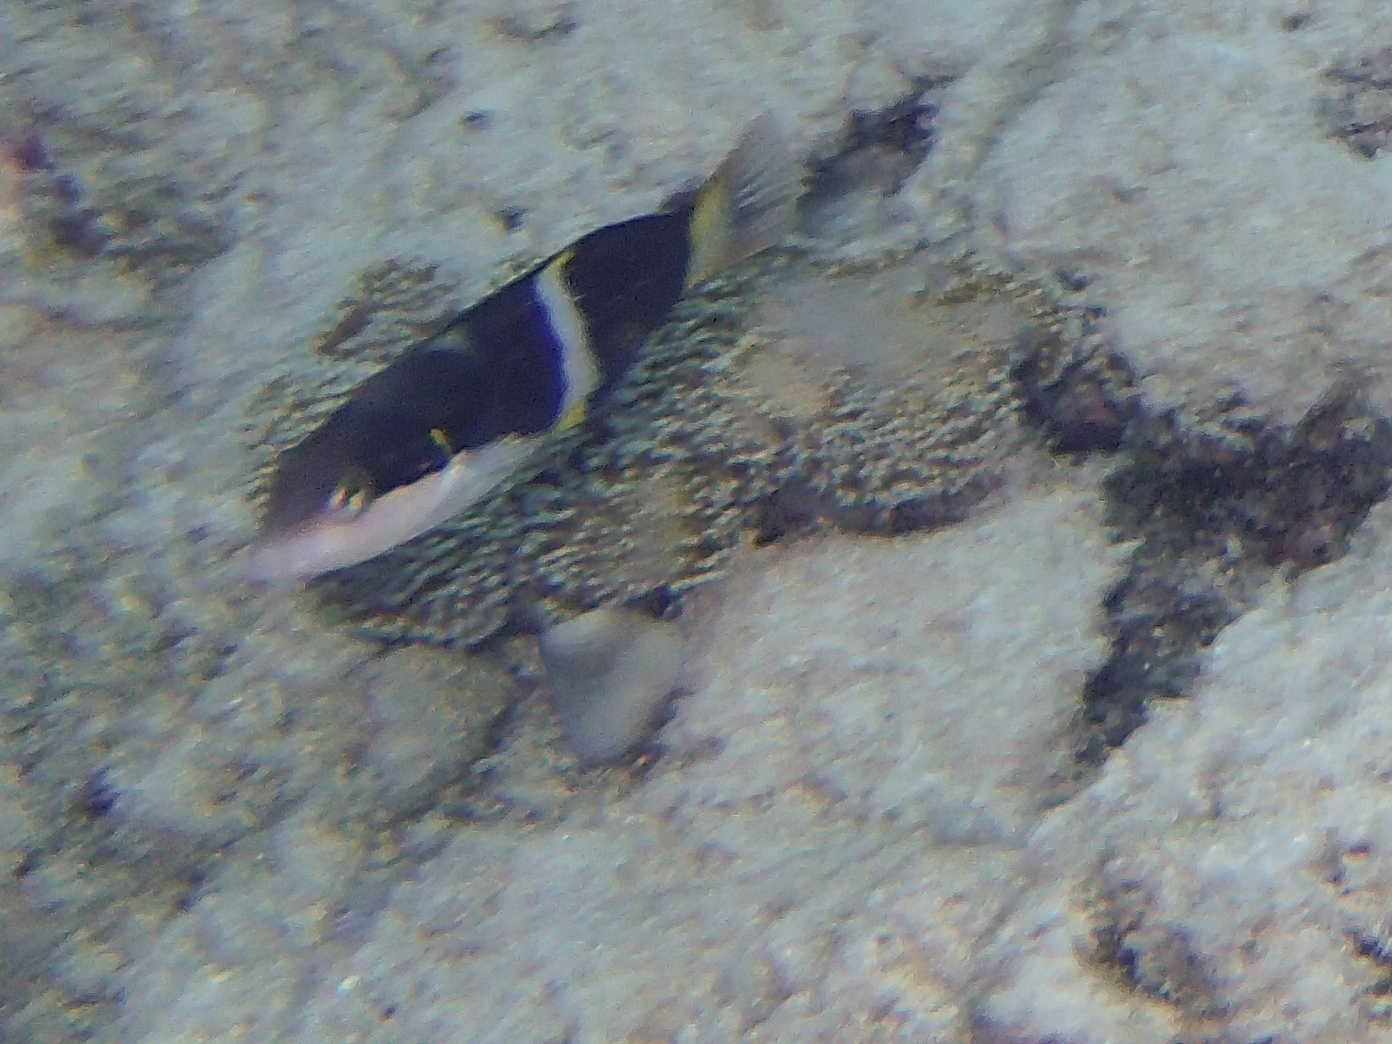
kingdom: Animalia
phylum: Chordata
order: Perciformes
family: Labridae
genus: Thalassoma
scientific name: Thalassoma nigrofasciatum
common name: Black-barred wrasse
